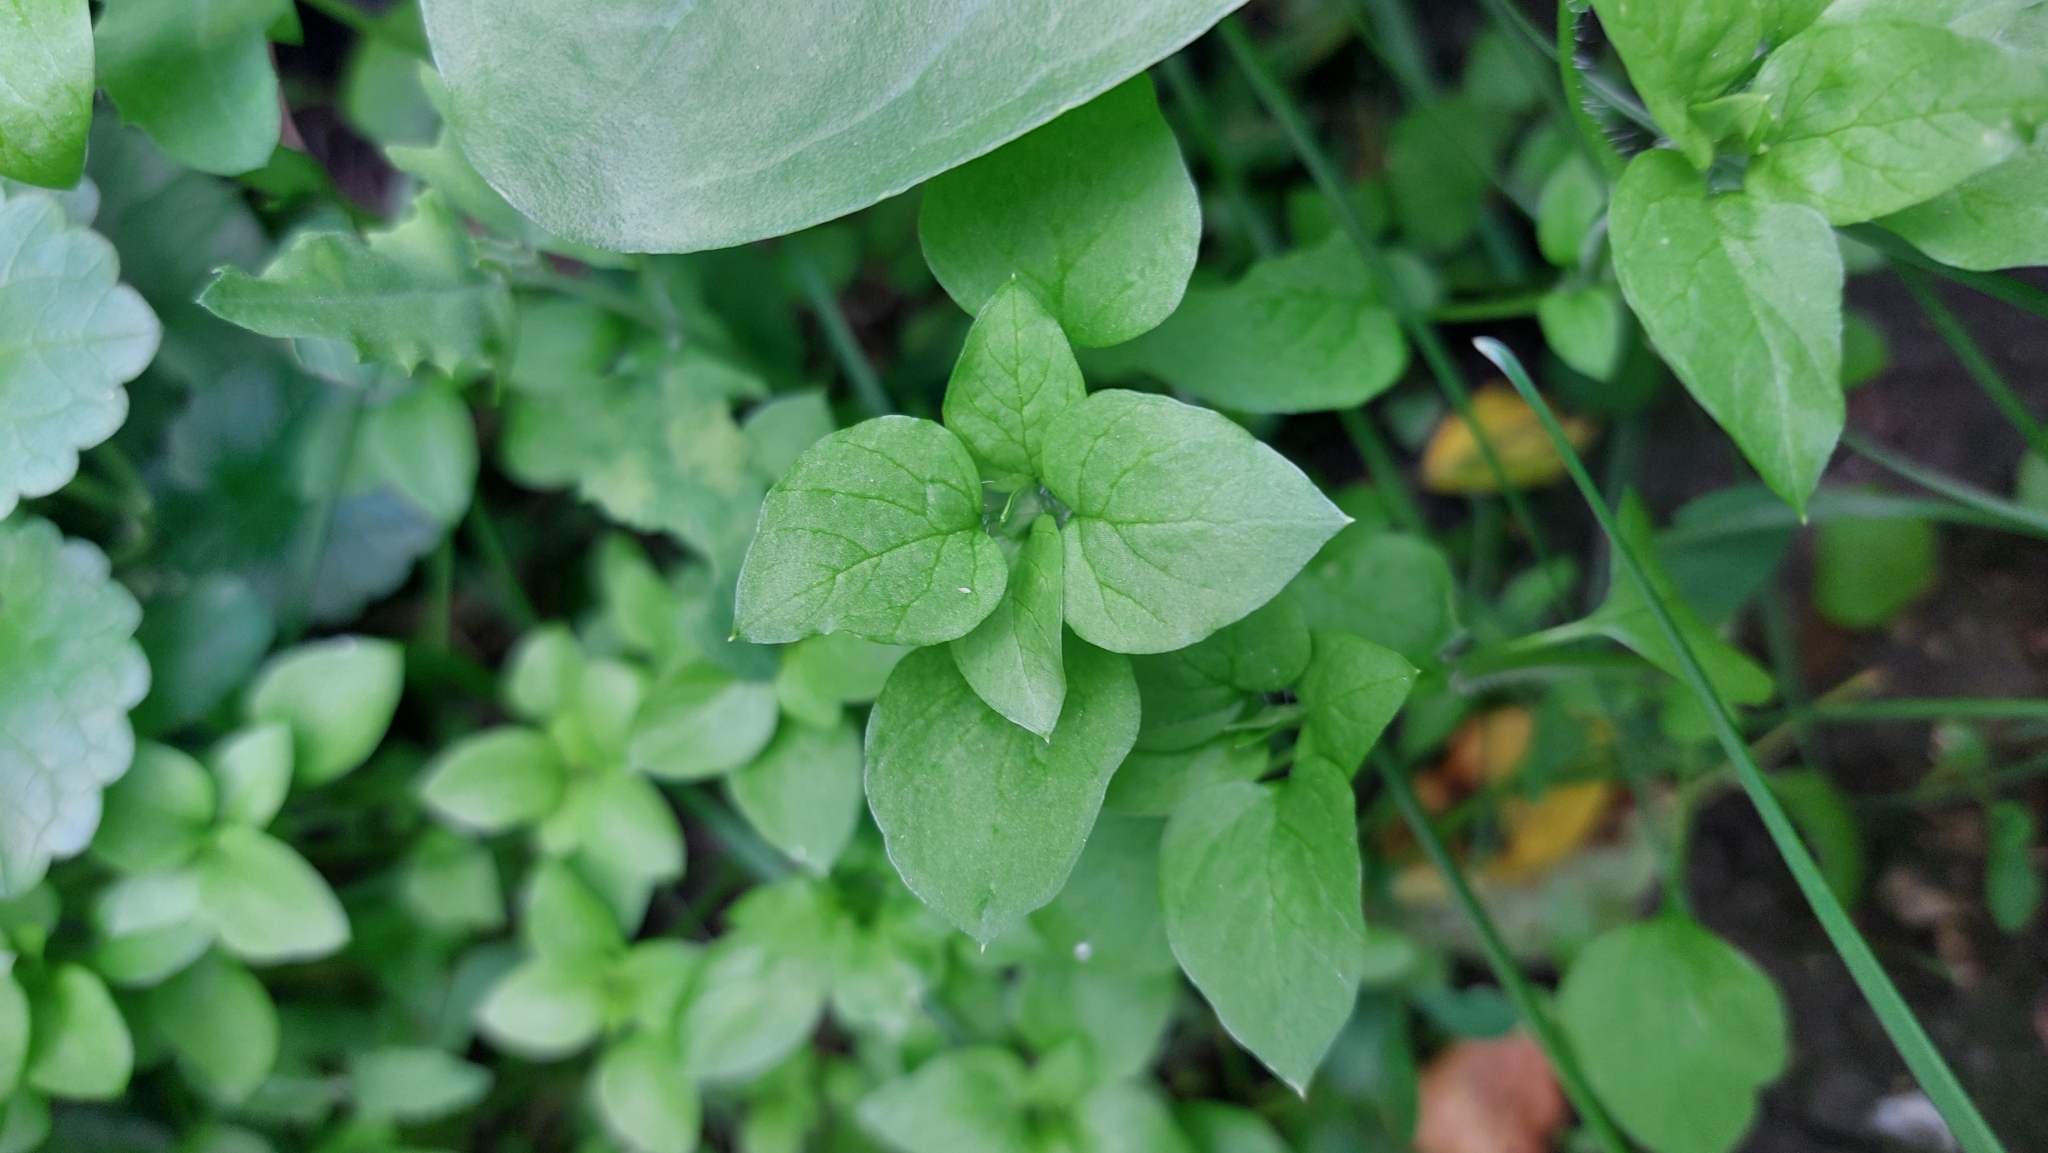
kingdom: Plantae
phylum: Tracheophyta
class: Magnoliopsida
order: Caryophyllales
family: Caryophyllaceae
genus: Stellaria
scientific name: Stellaria media
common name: Common chickweed
